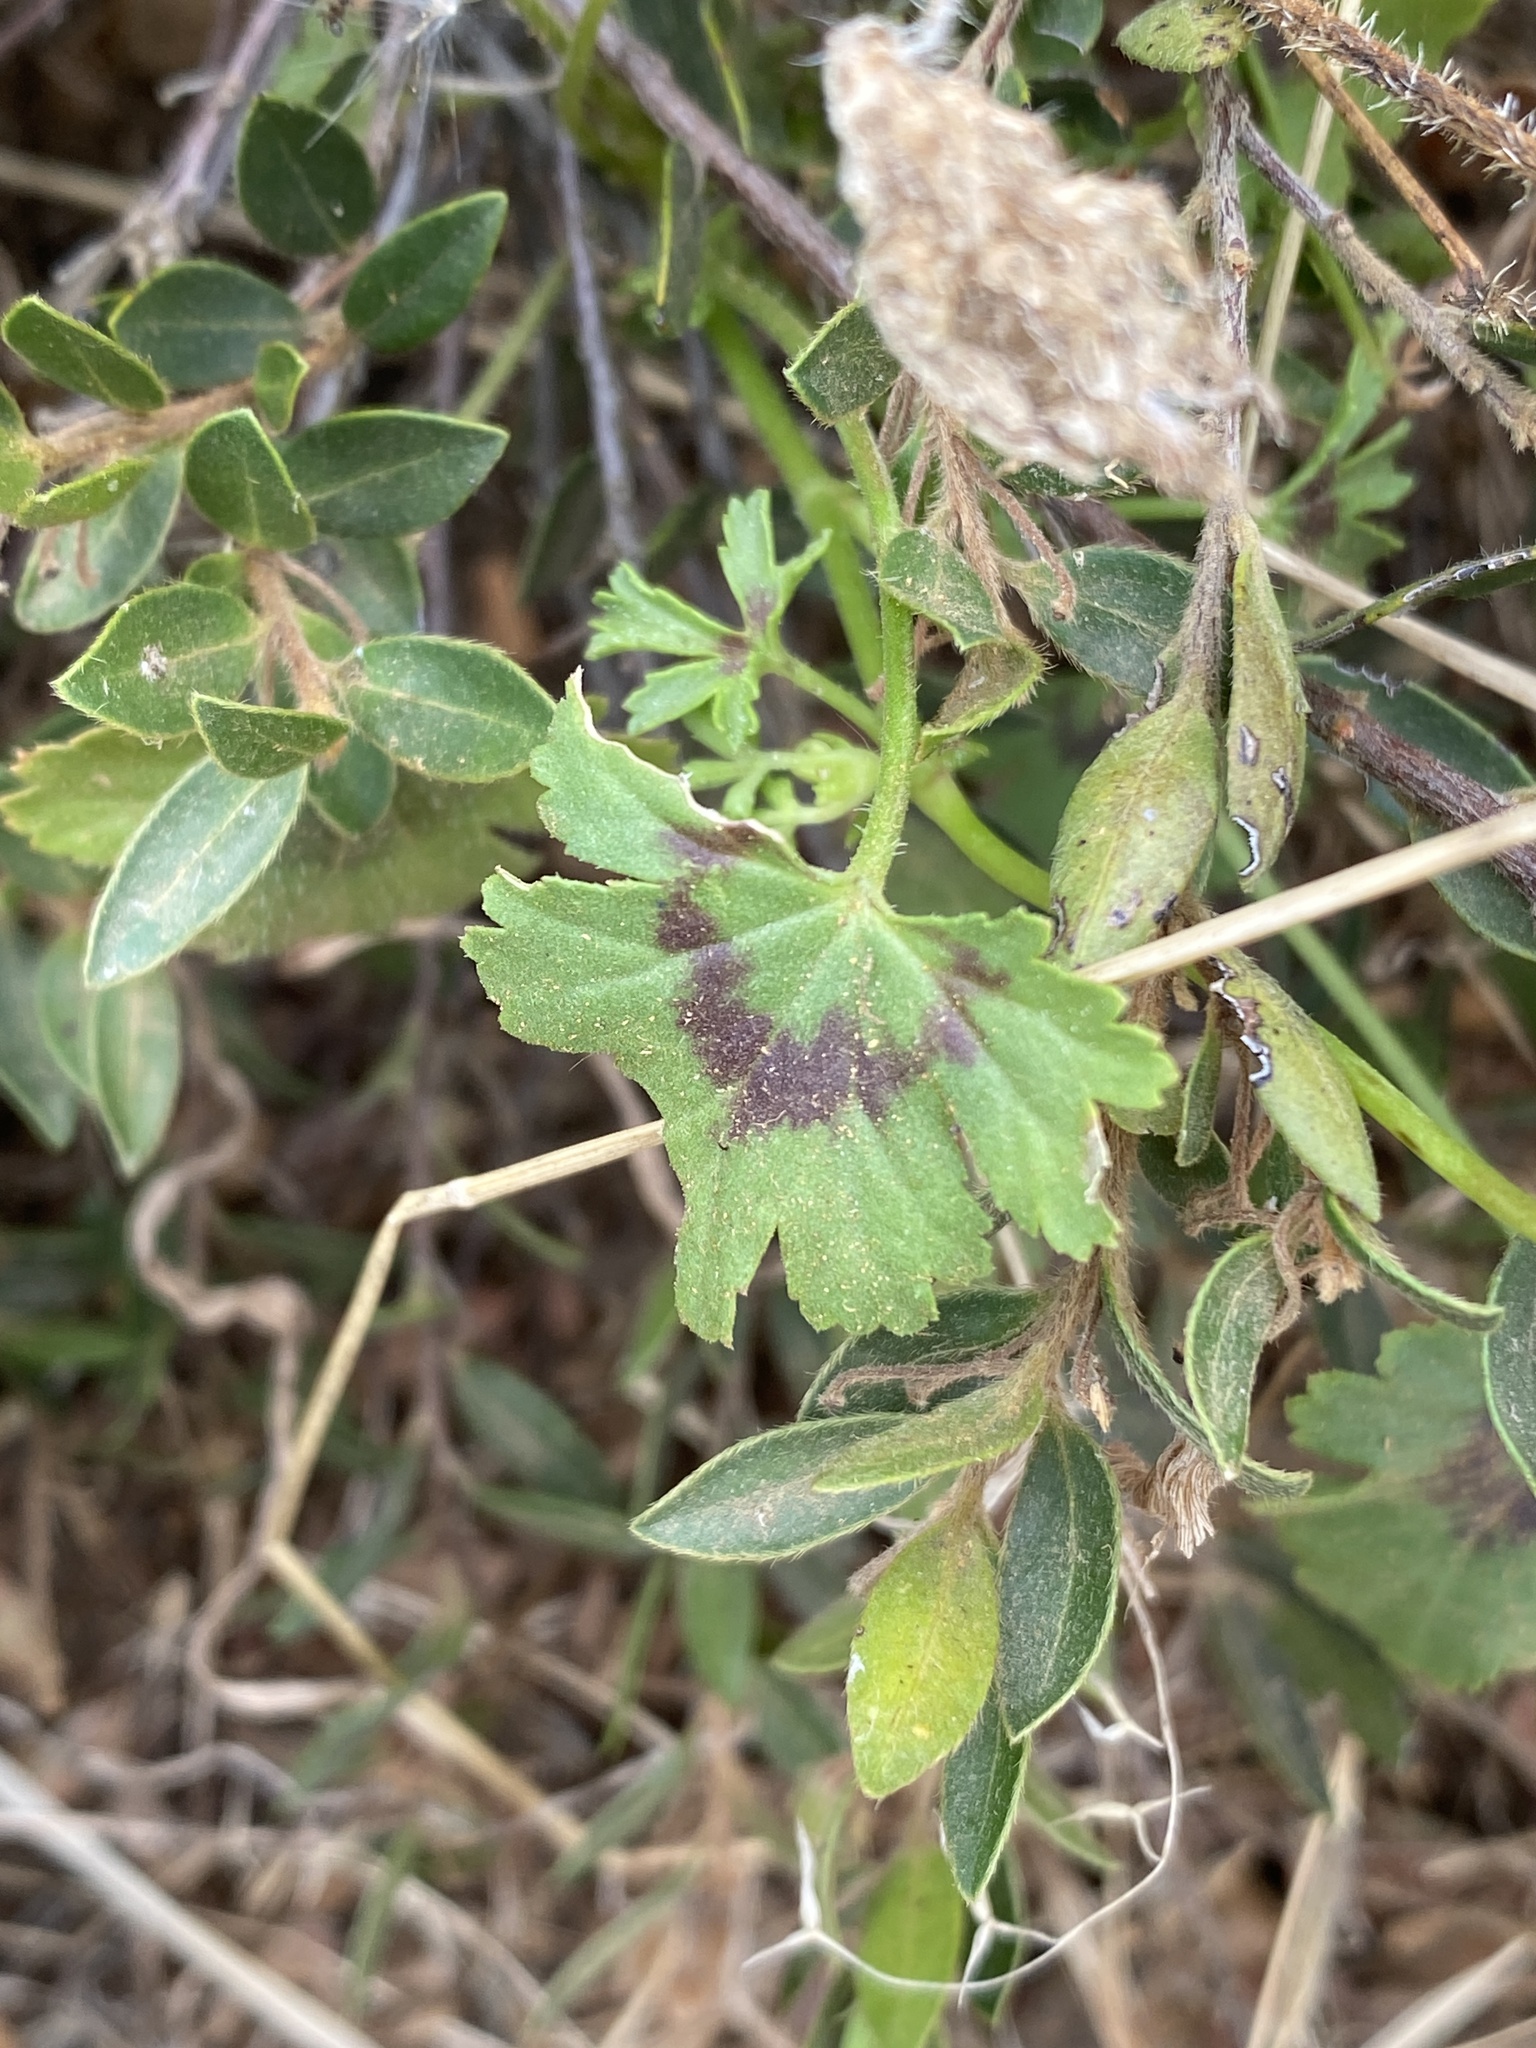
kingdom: Plantae
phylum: Tracheophyta
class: Magnoliopsida
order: Geraniales
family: Geraniaceae
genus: Pelargonium
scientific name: Pelargonium elongatum
